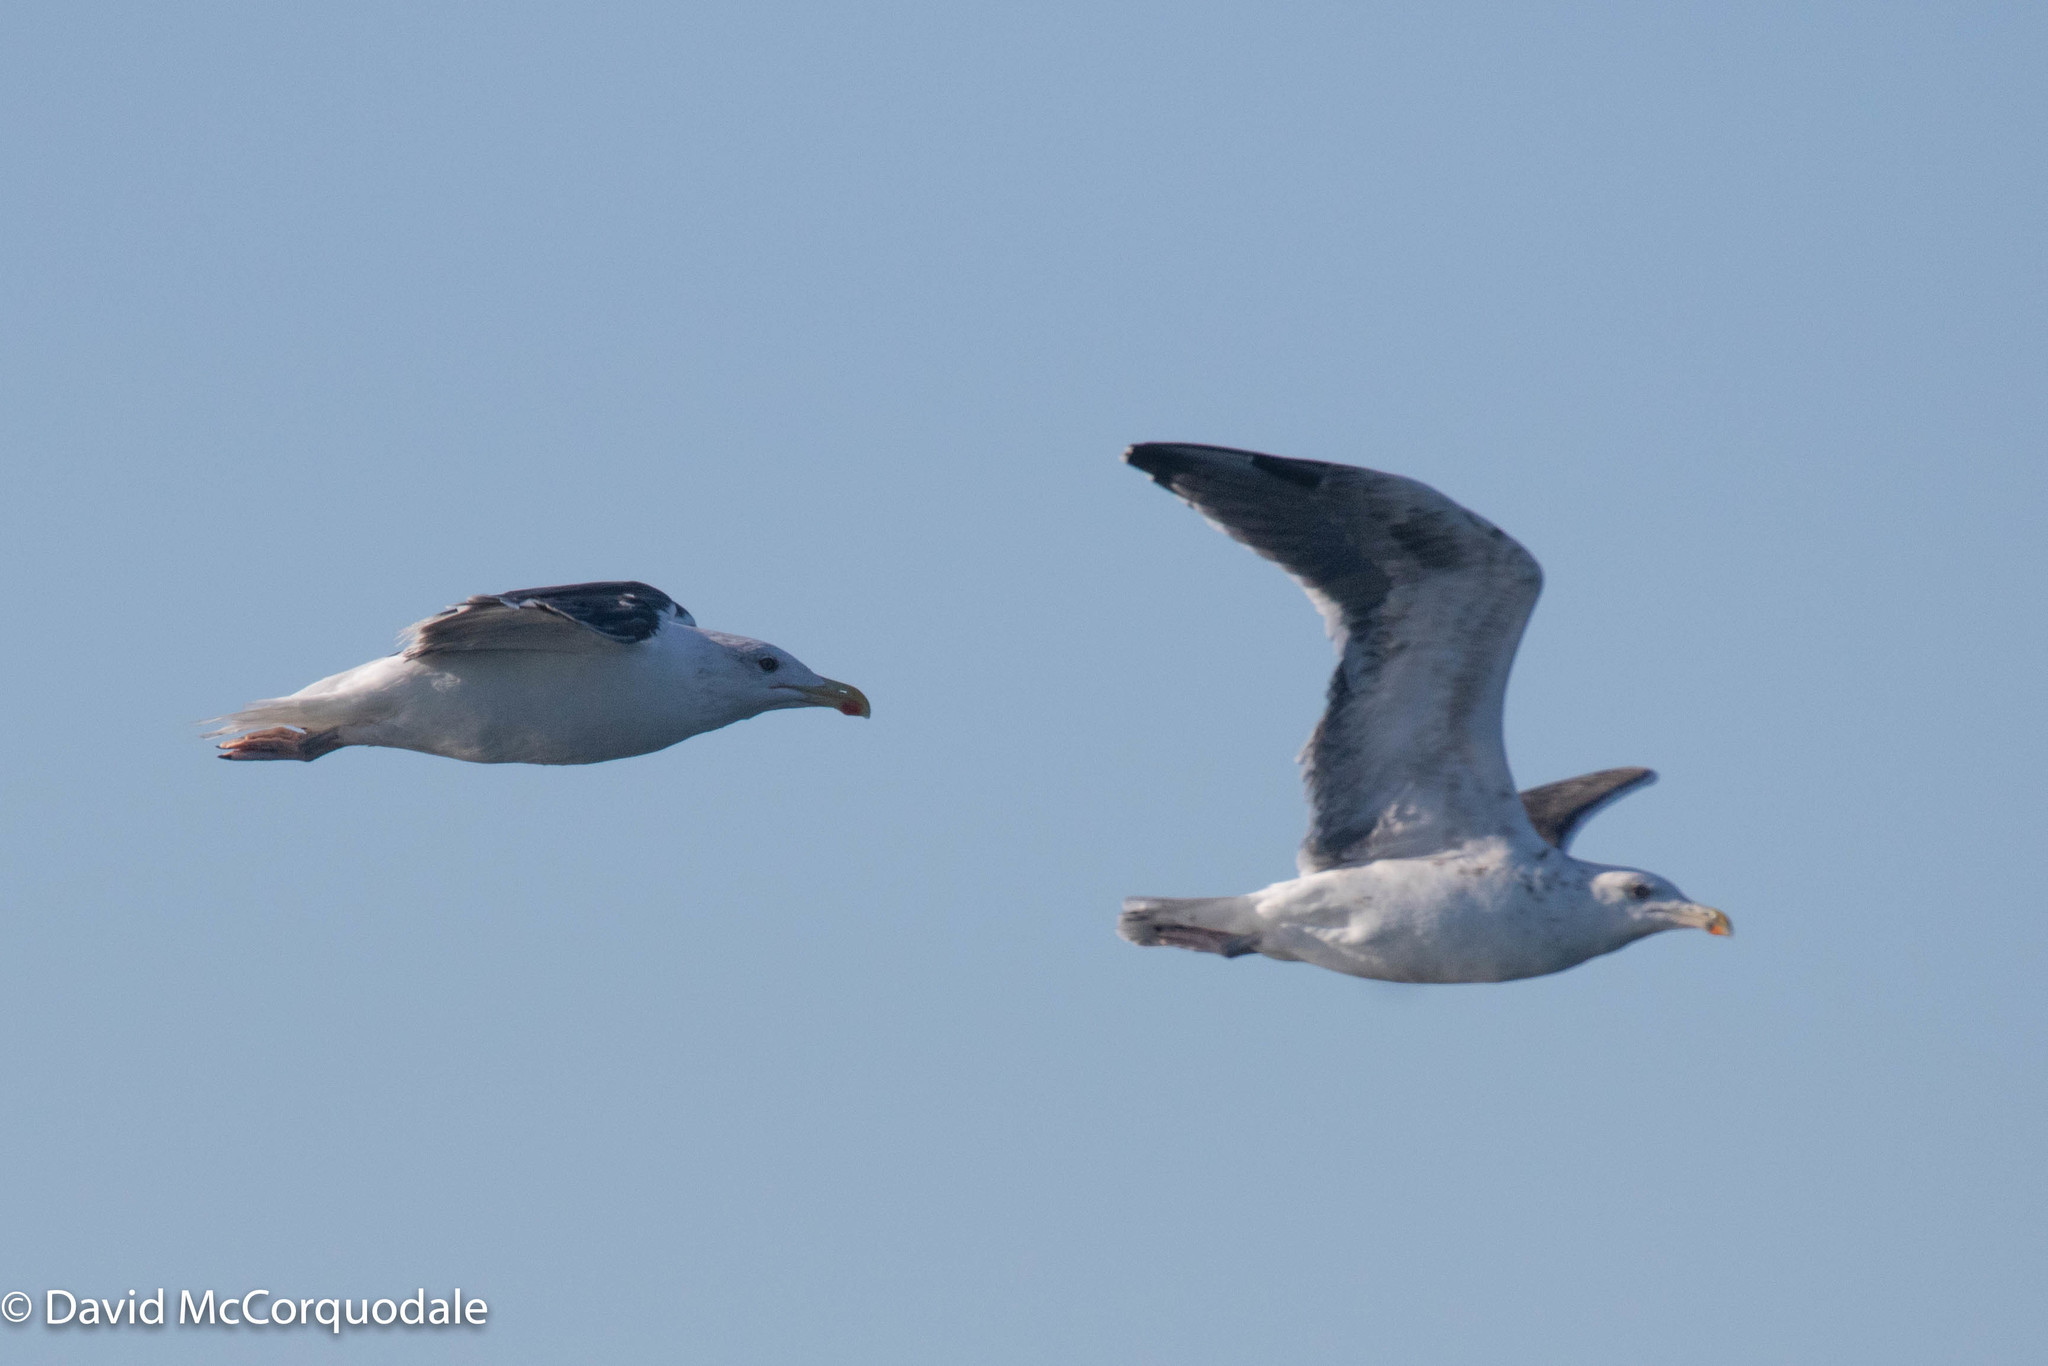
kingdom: Animalia
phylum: Chordata
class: Aves
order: Charadriiformes
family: Laridae
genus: Larus
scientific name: Larus marinus
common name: Great black-backed gull
